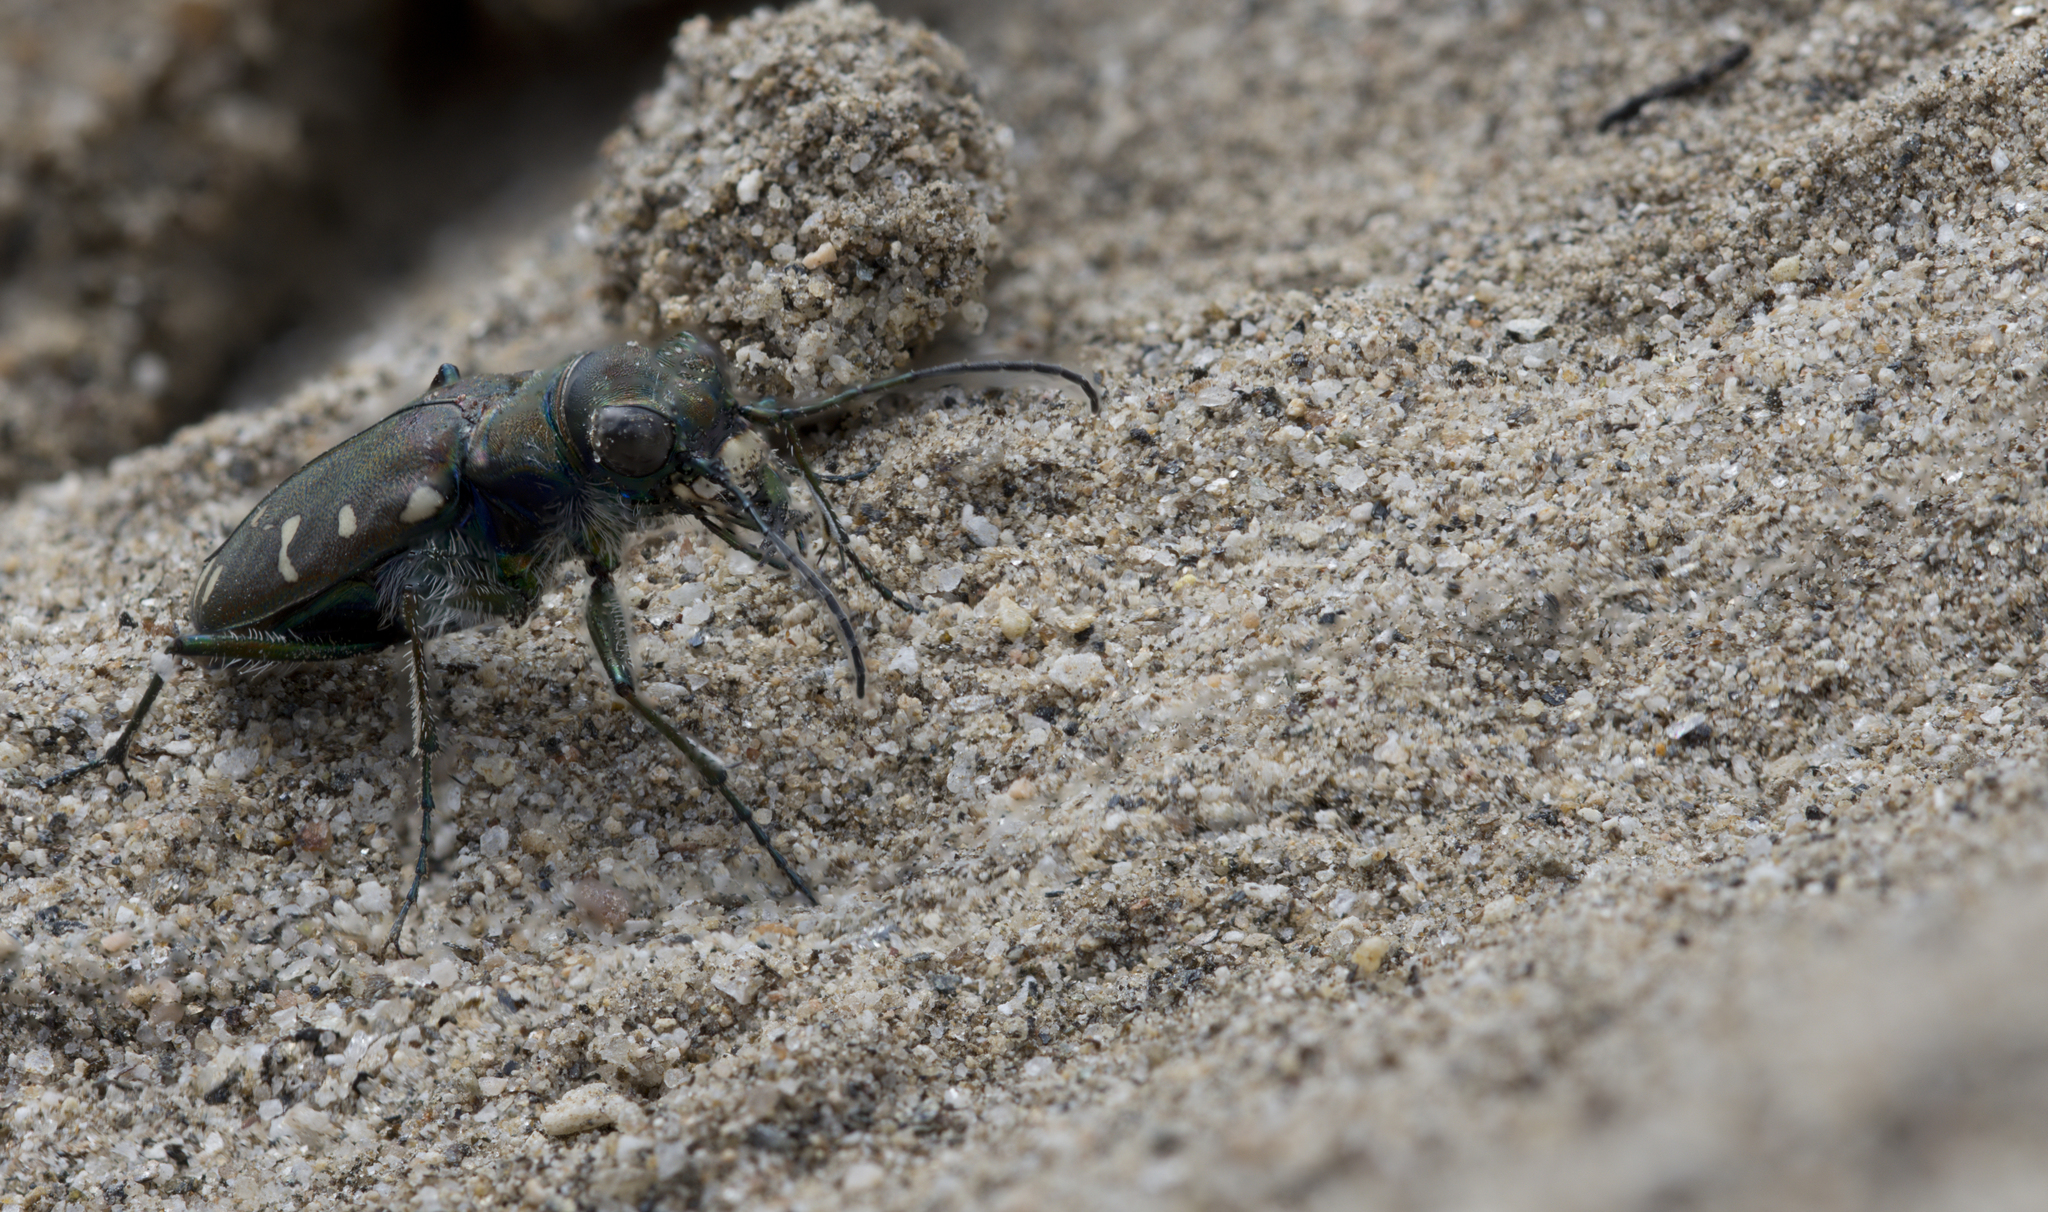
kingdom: Animalia
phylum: Arthropoda
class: Insecta
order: Coleoptera
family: Carabidae
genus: Cicindela
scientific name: Cicindela oregona
